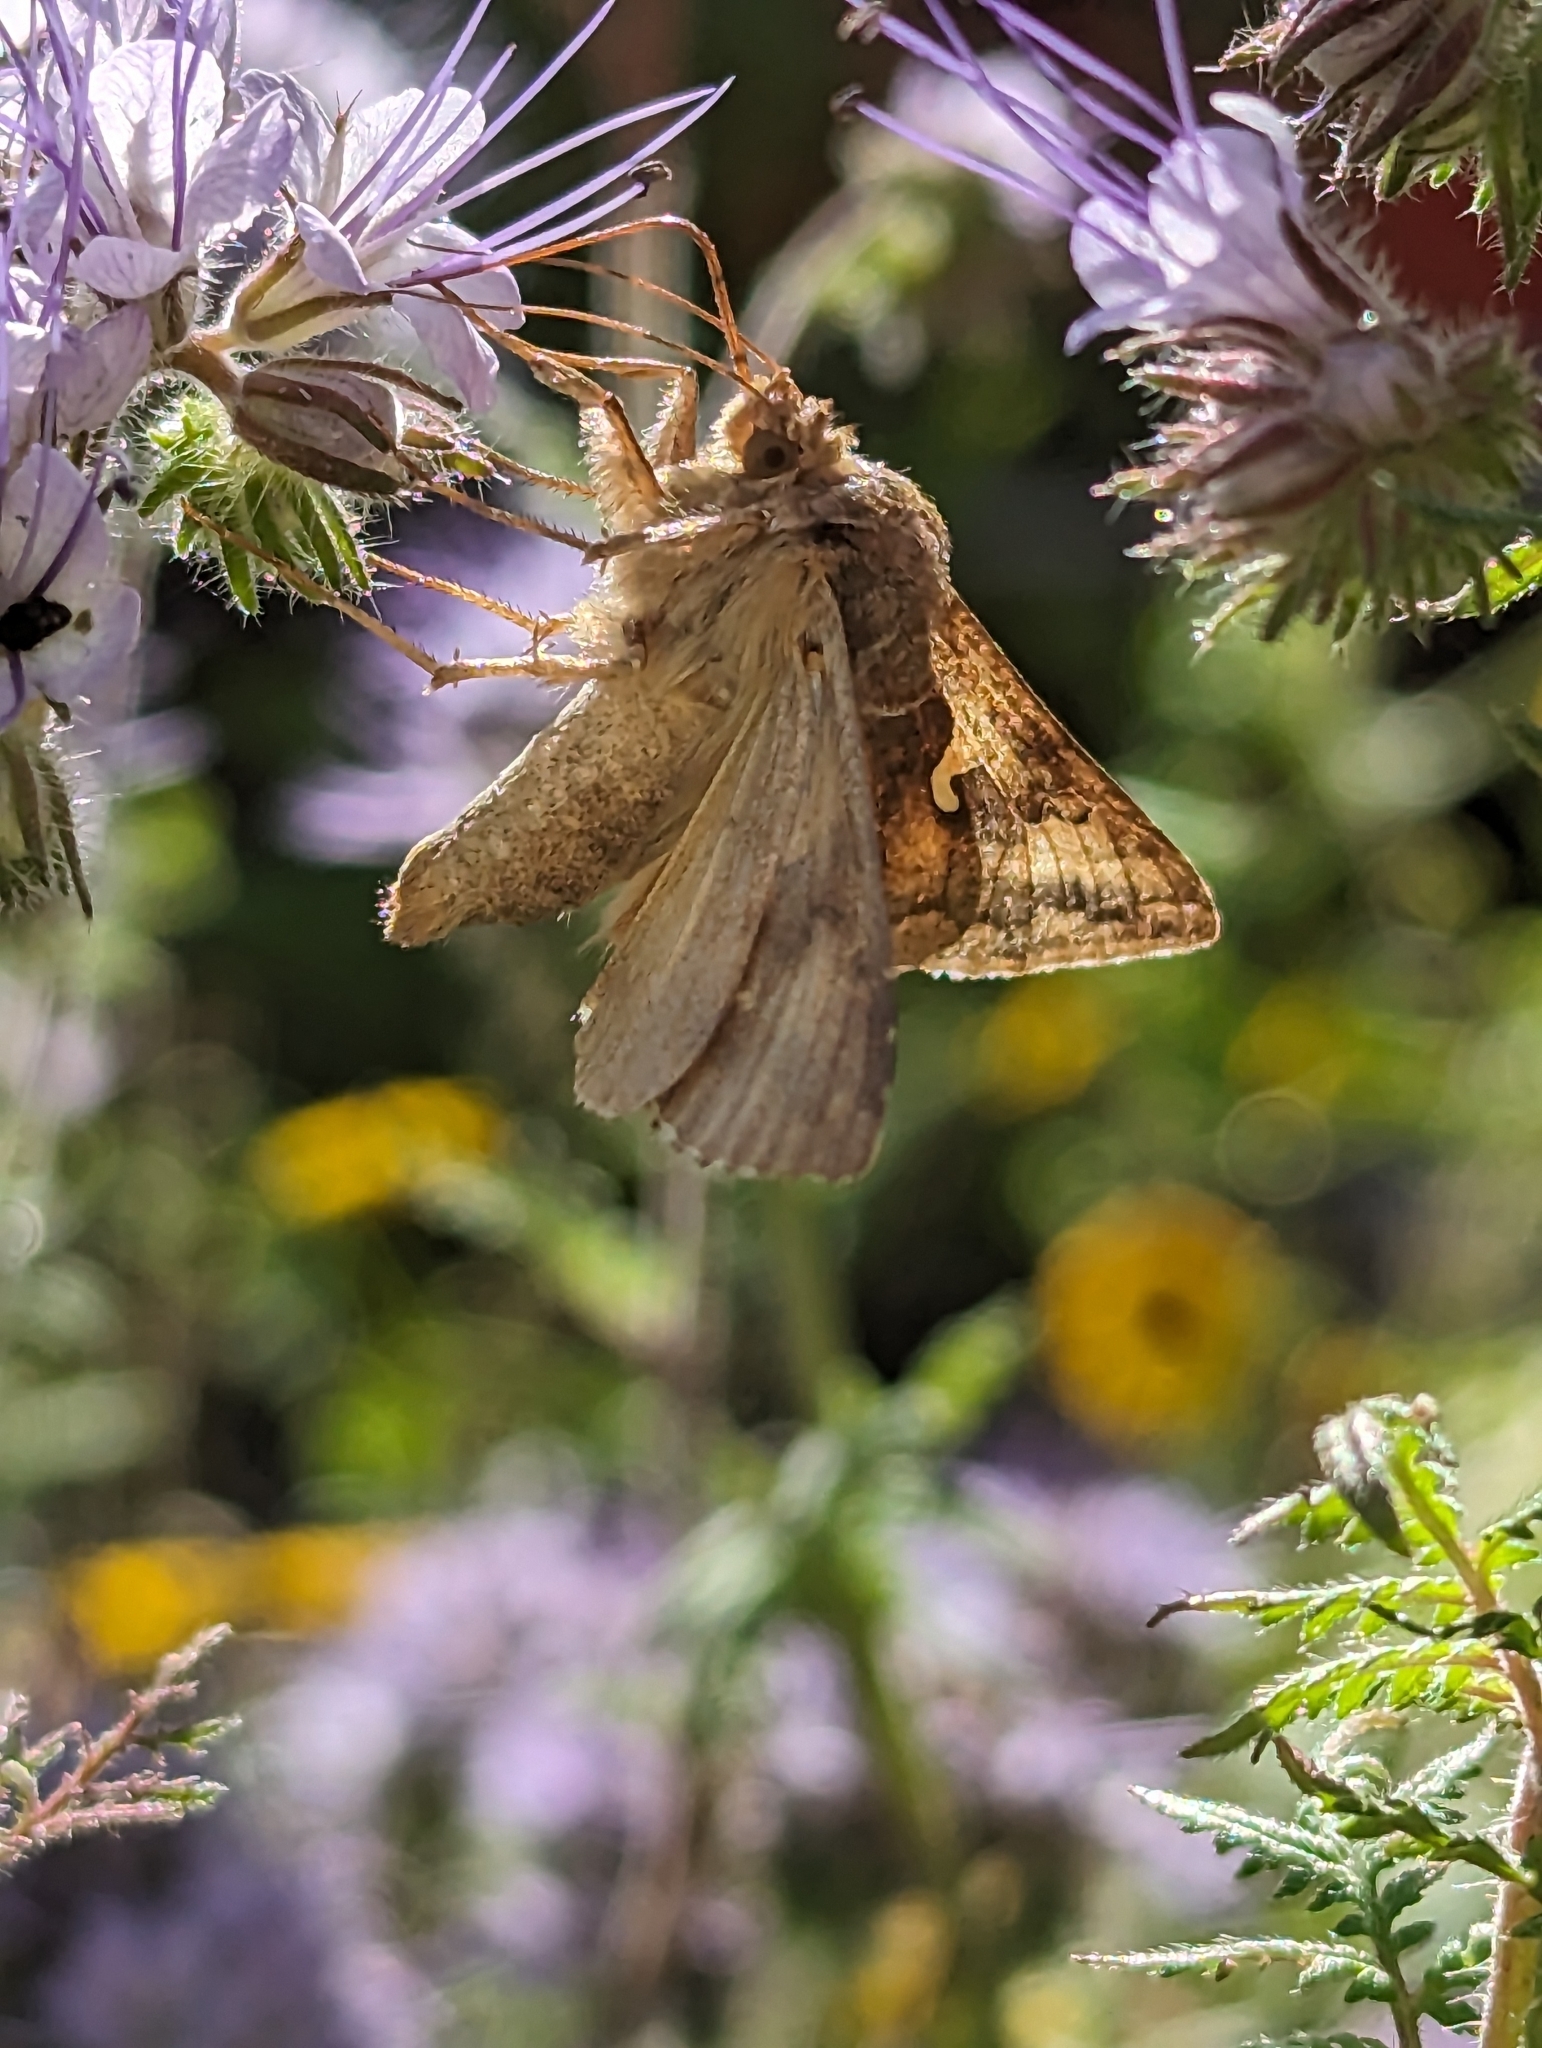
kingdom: Animalia
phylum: Arthropoda
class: Insecta
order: Lepidoptera
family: Noctuidae
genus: Autographa
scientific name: Autographa gamma
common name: Silver y
